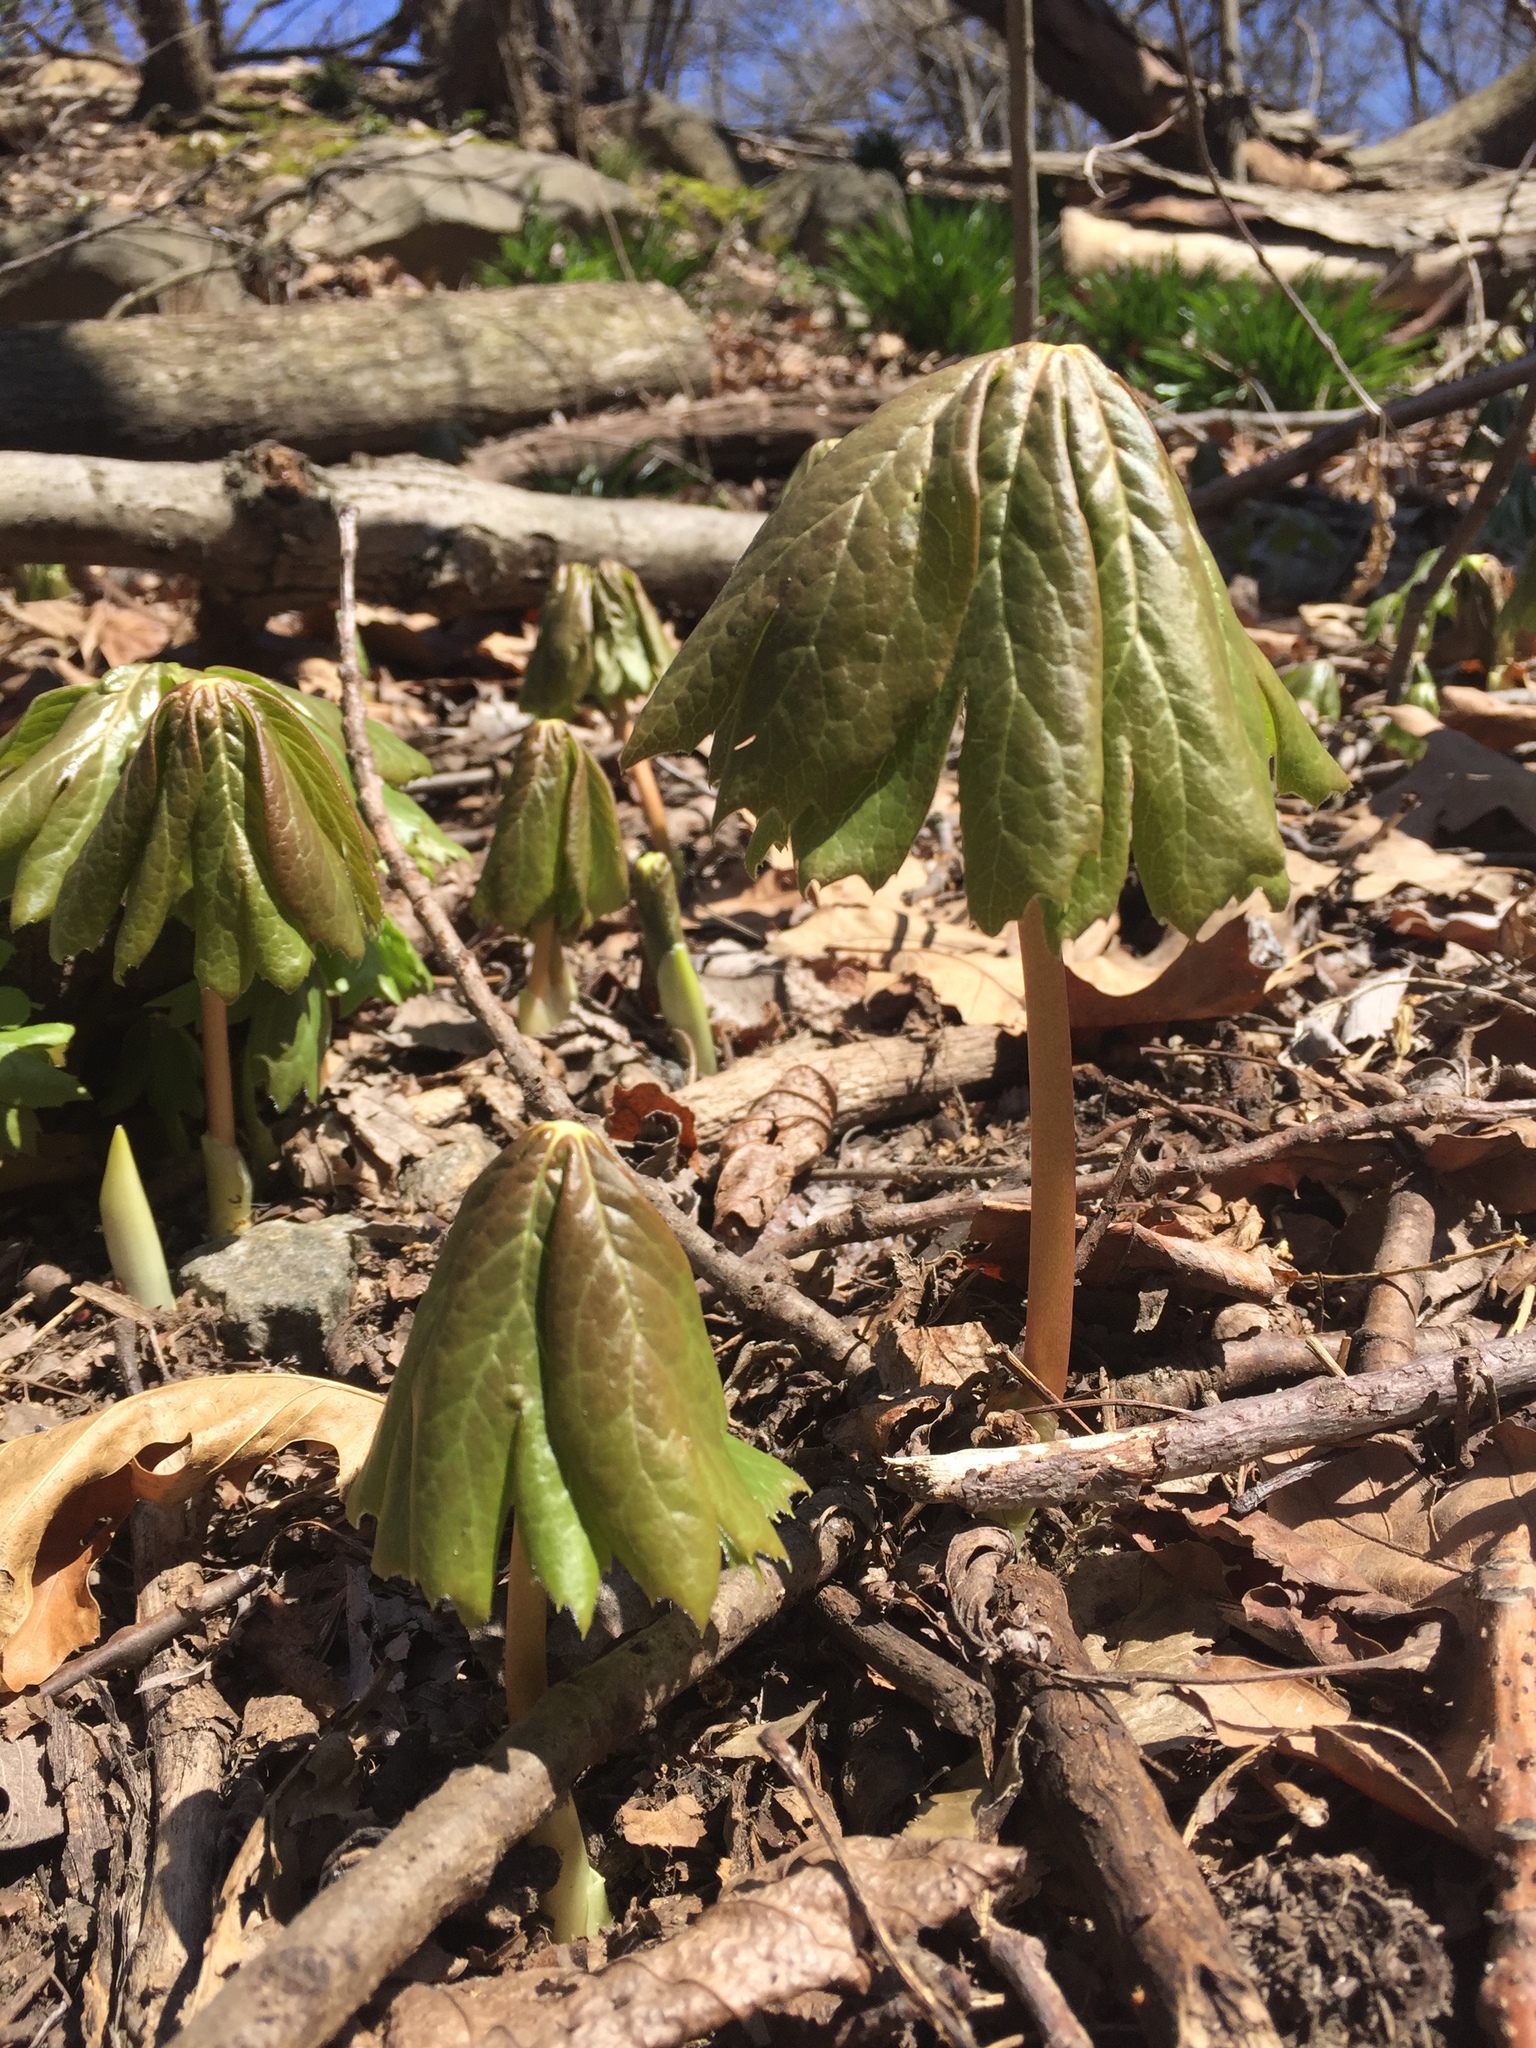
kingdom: Plantae
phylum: Tracheophyta
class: Magnoliopsida
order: Ranunculales
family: Berberidaceae
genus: Podophyllum
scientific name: Podophyllum peltatum
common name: Wild mandrake
